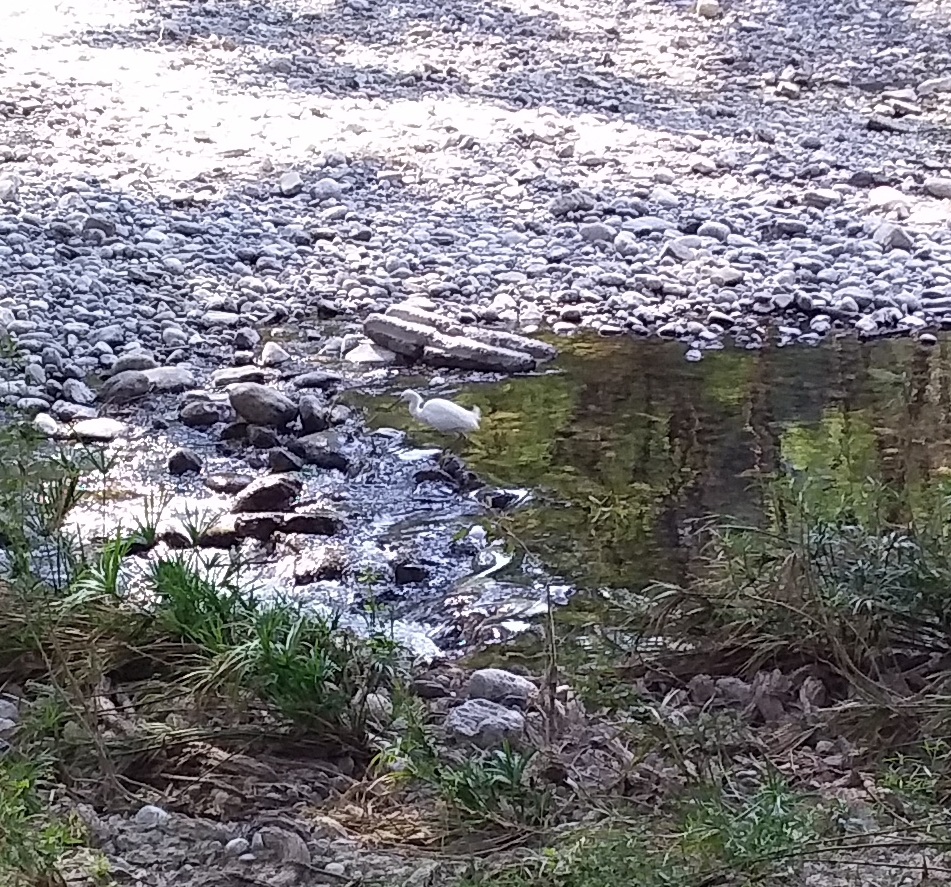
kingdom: Animalia
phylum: Chordata
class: Aves
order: Pelecaniformes
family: Ardeidae
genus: Egretta
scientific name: Egretta thula
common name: Snowy egret
